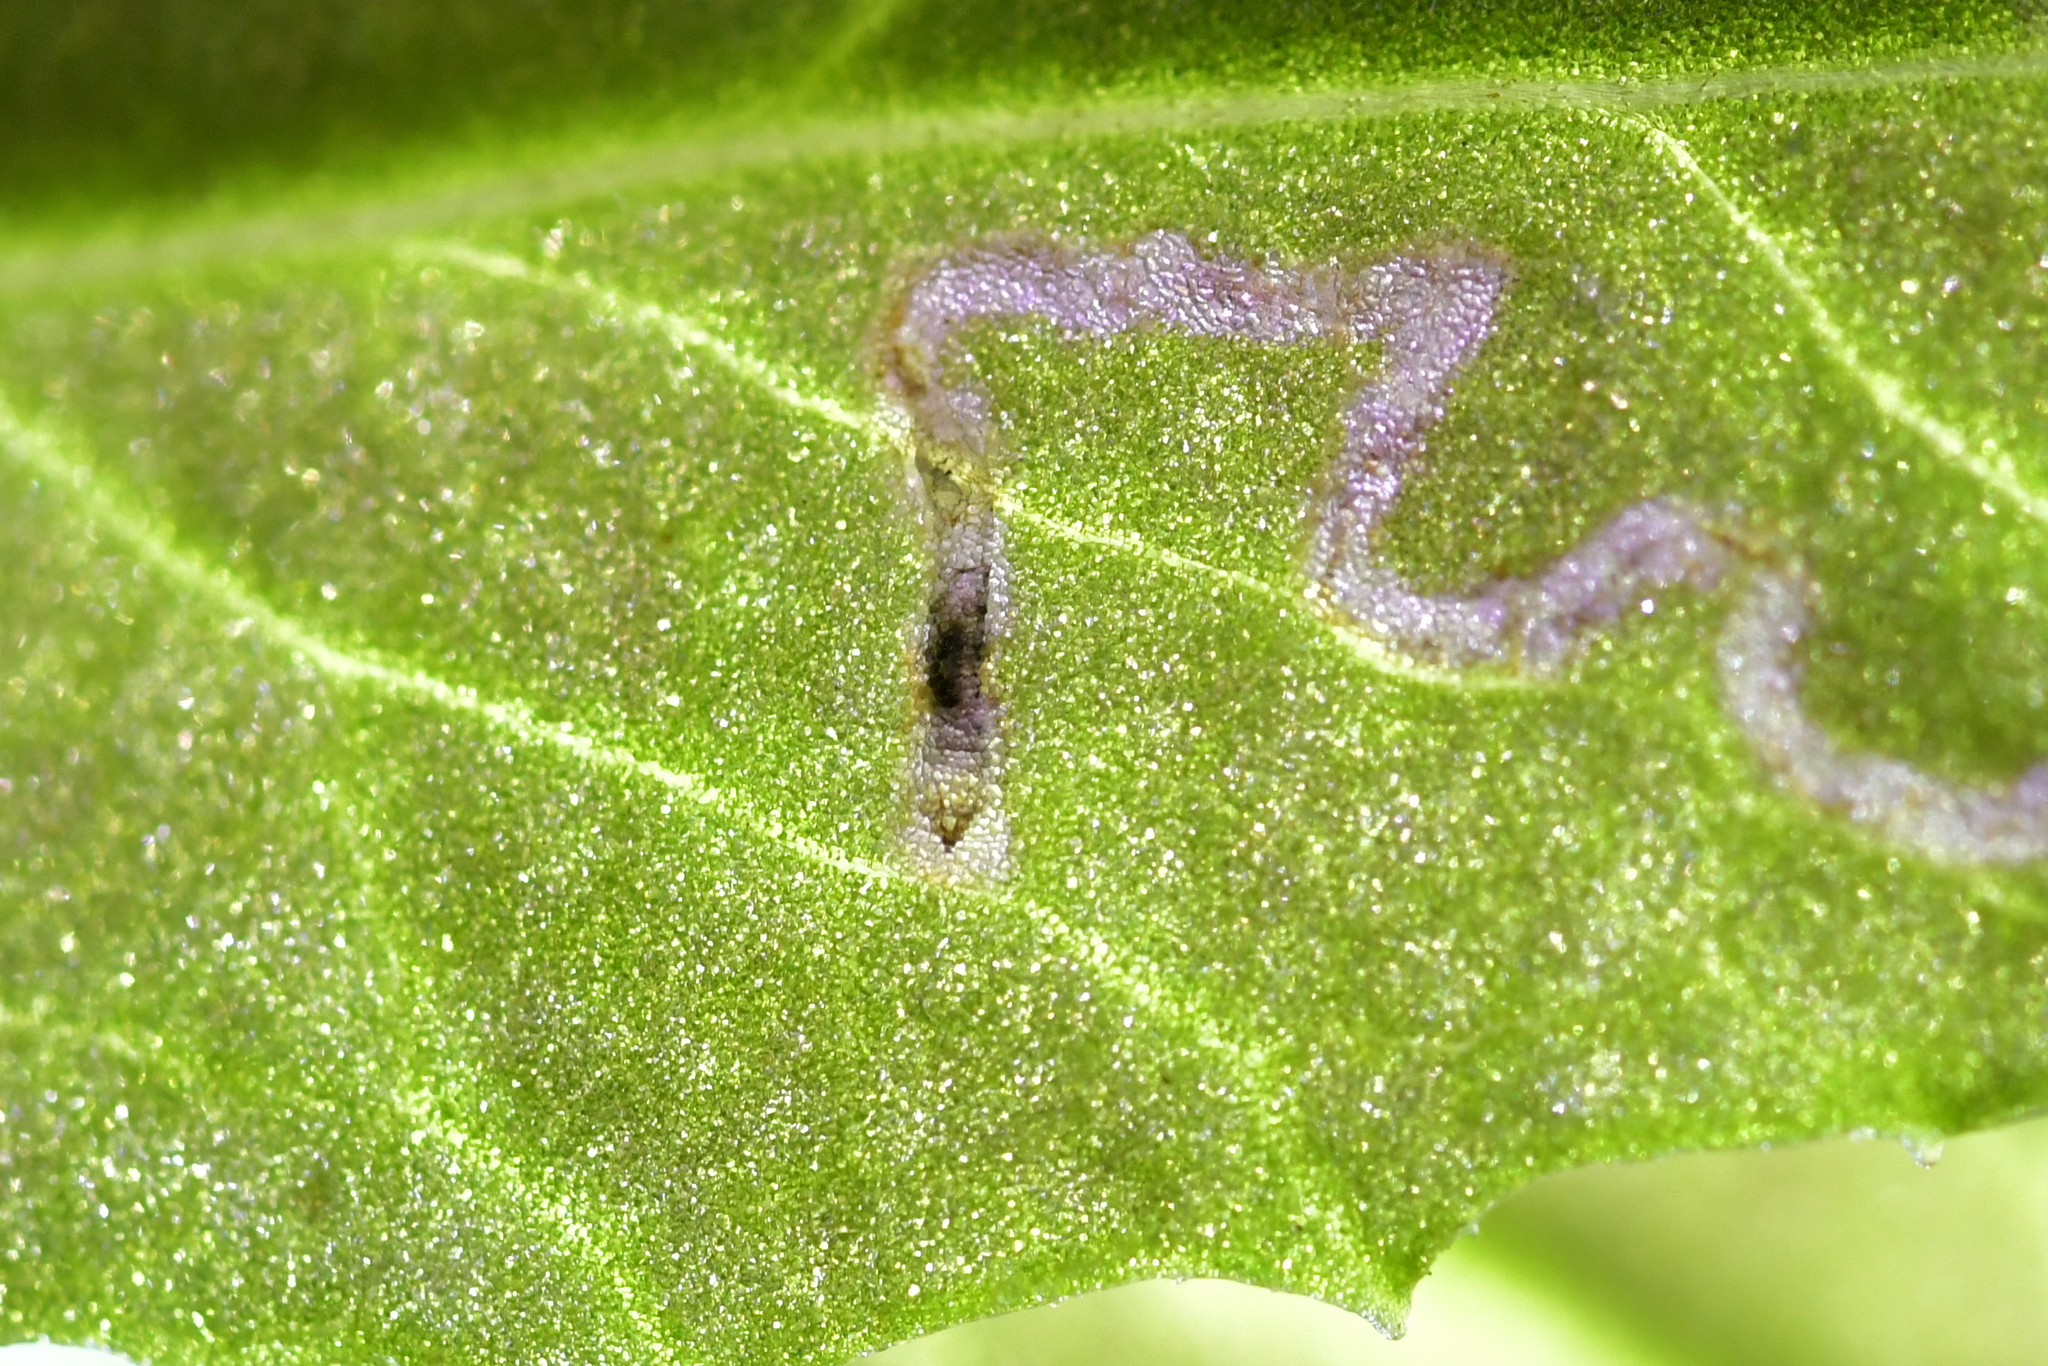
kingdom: Animalia
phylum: Arthropoda
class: Insecta
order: Lepidoptera
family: Nepticulidae
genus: Stigmella
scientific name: Stigmella ogygia
